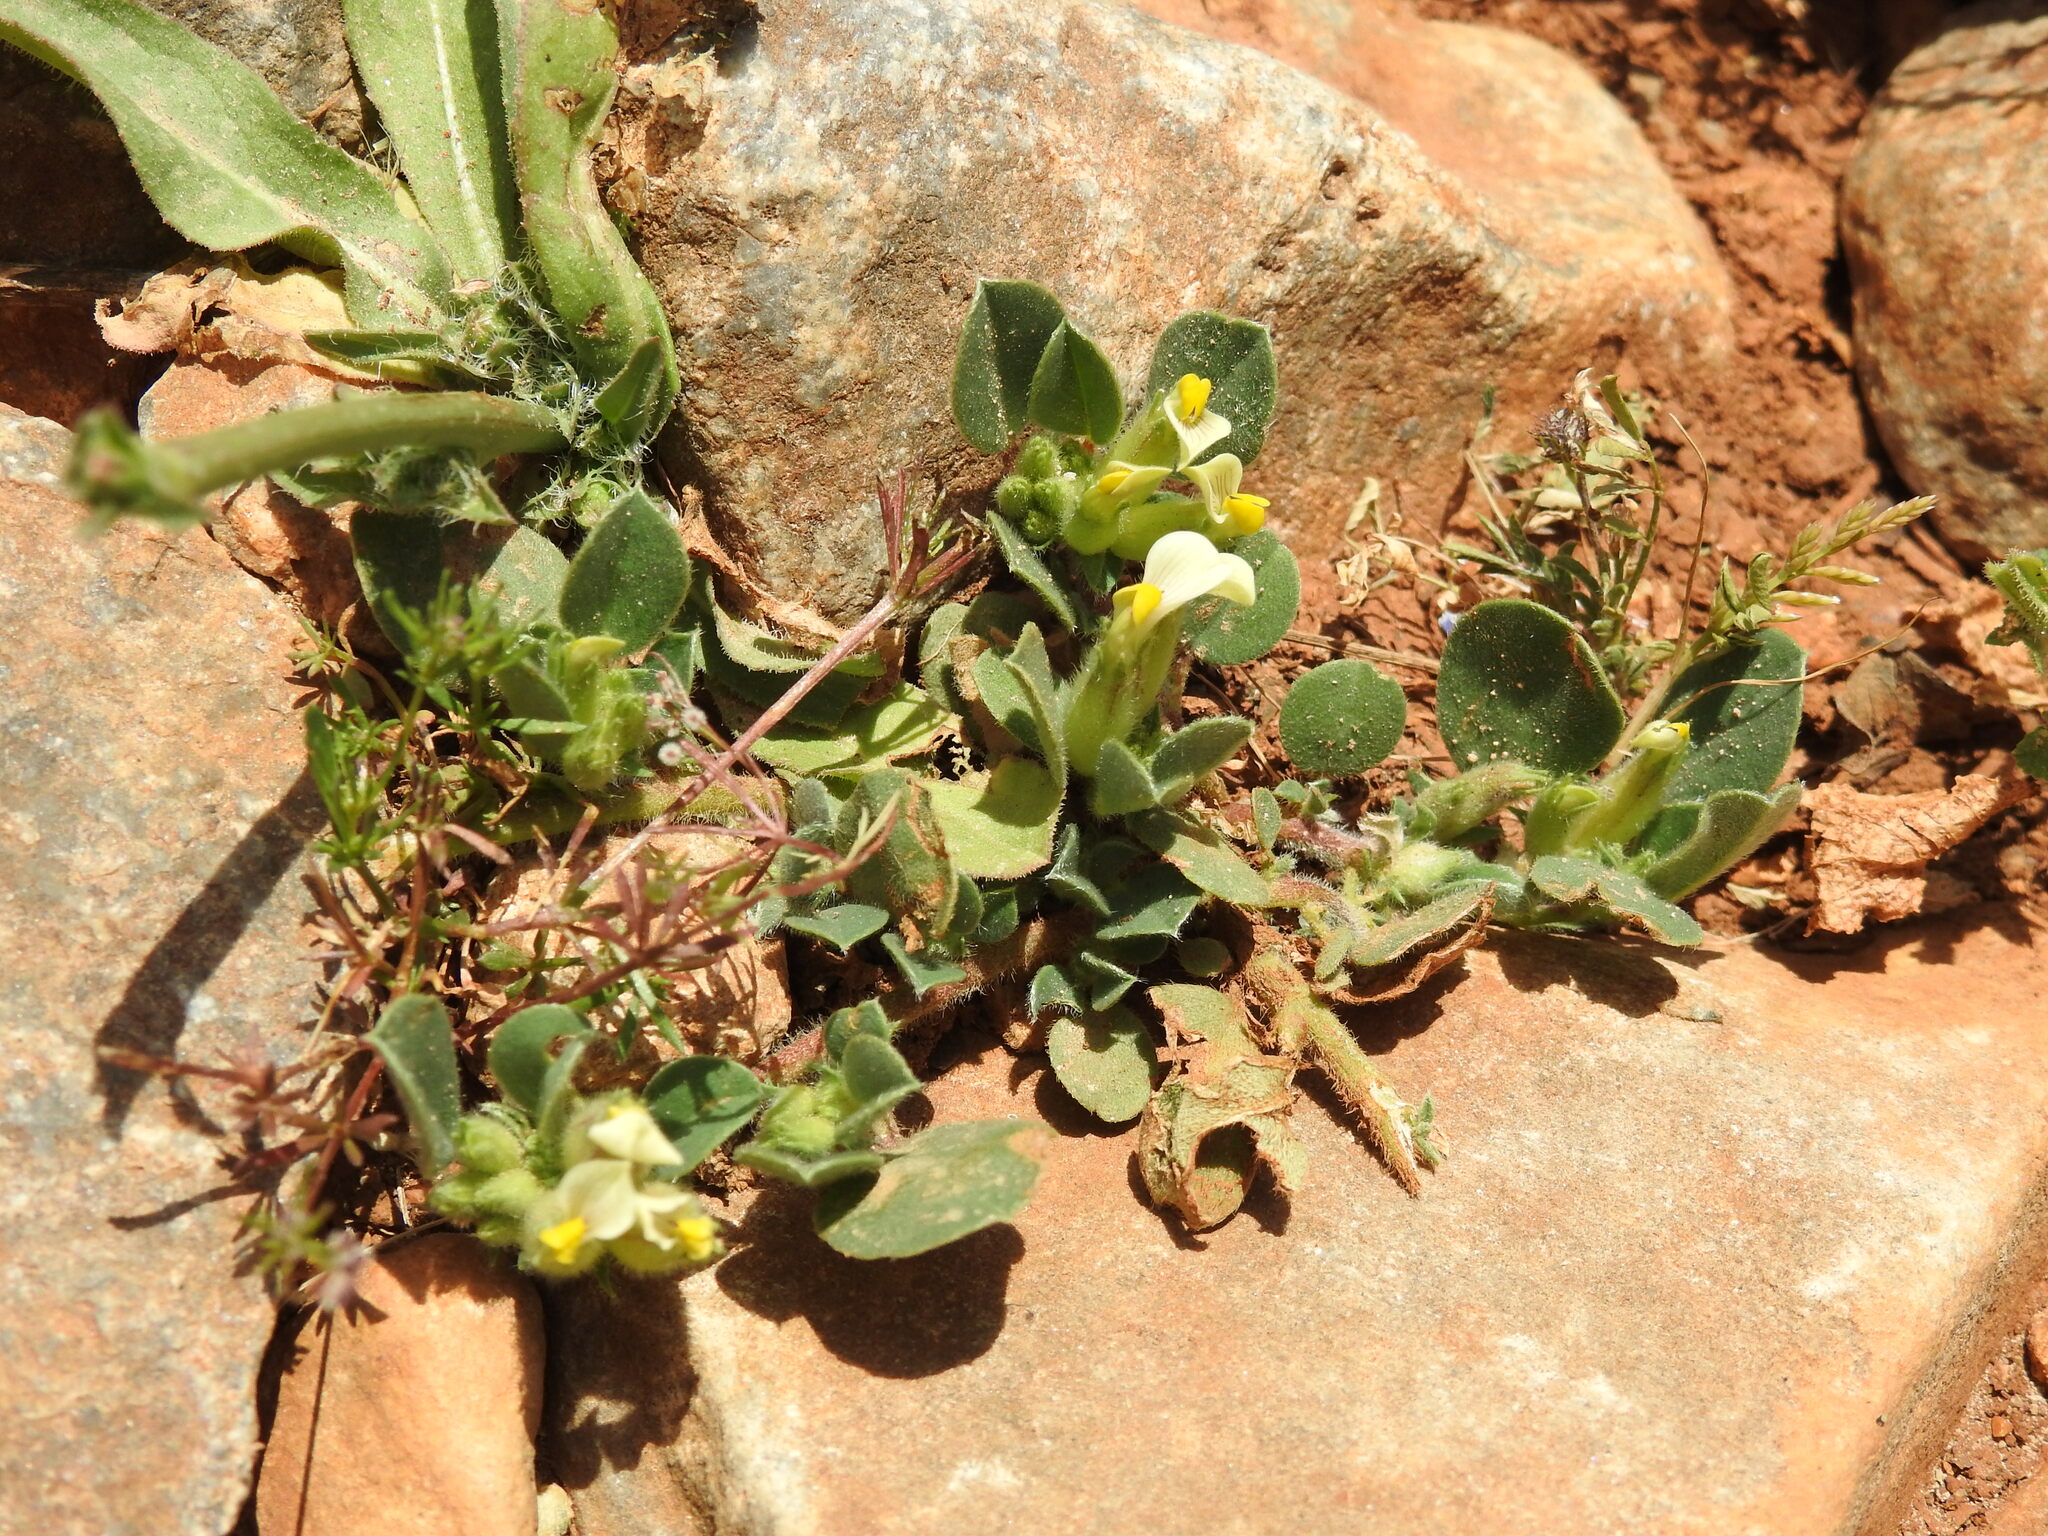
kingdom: Plantae
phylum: Tracheophyta
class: Magnoliopsida
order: Fabales
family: Fabaceae
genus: Tripodion
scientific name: Tripodion tetraphyllum
